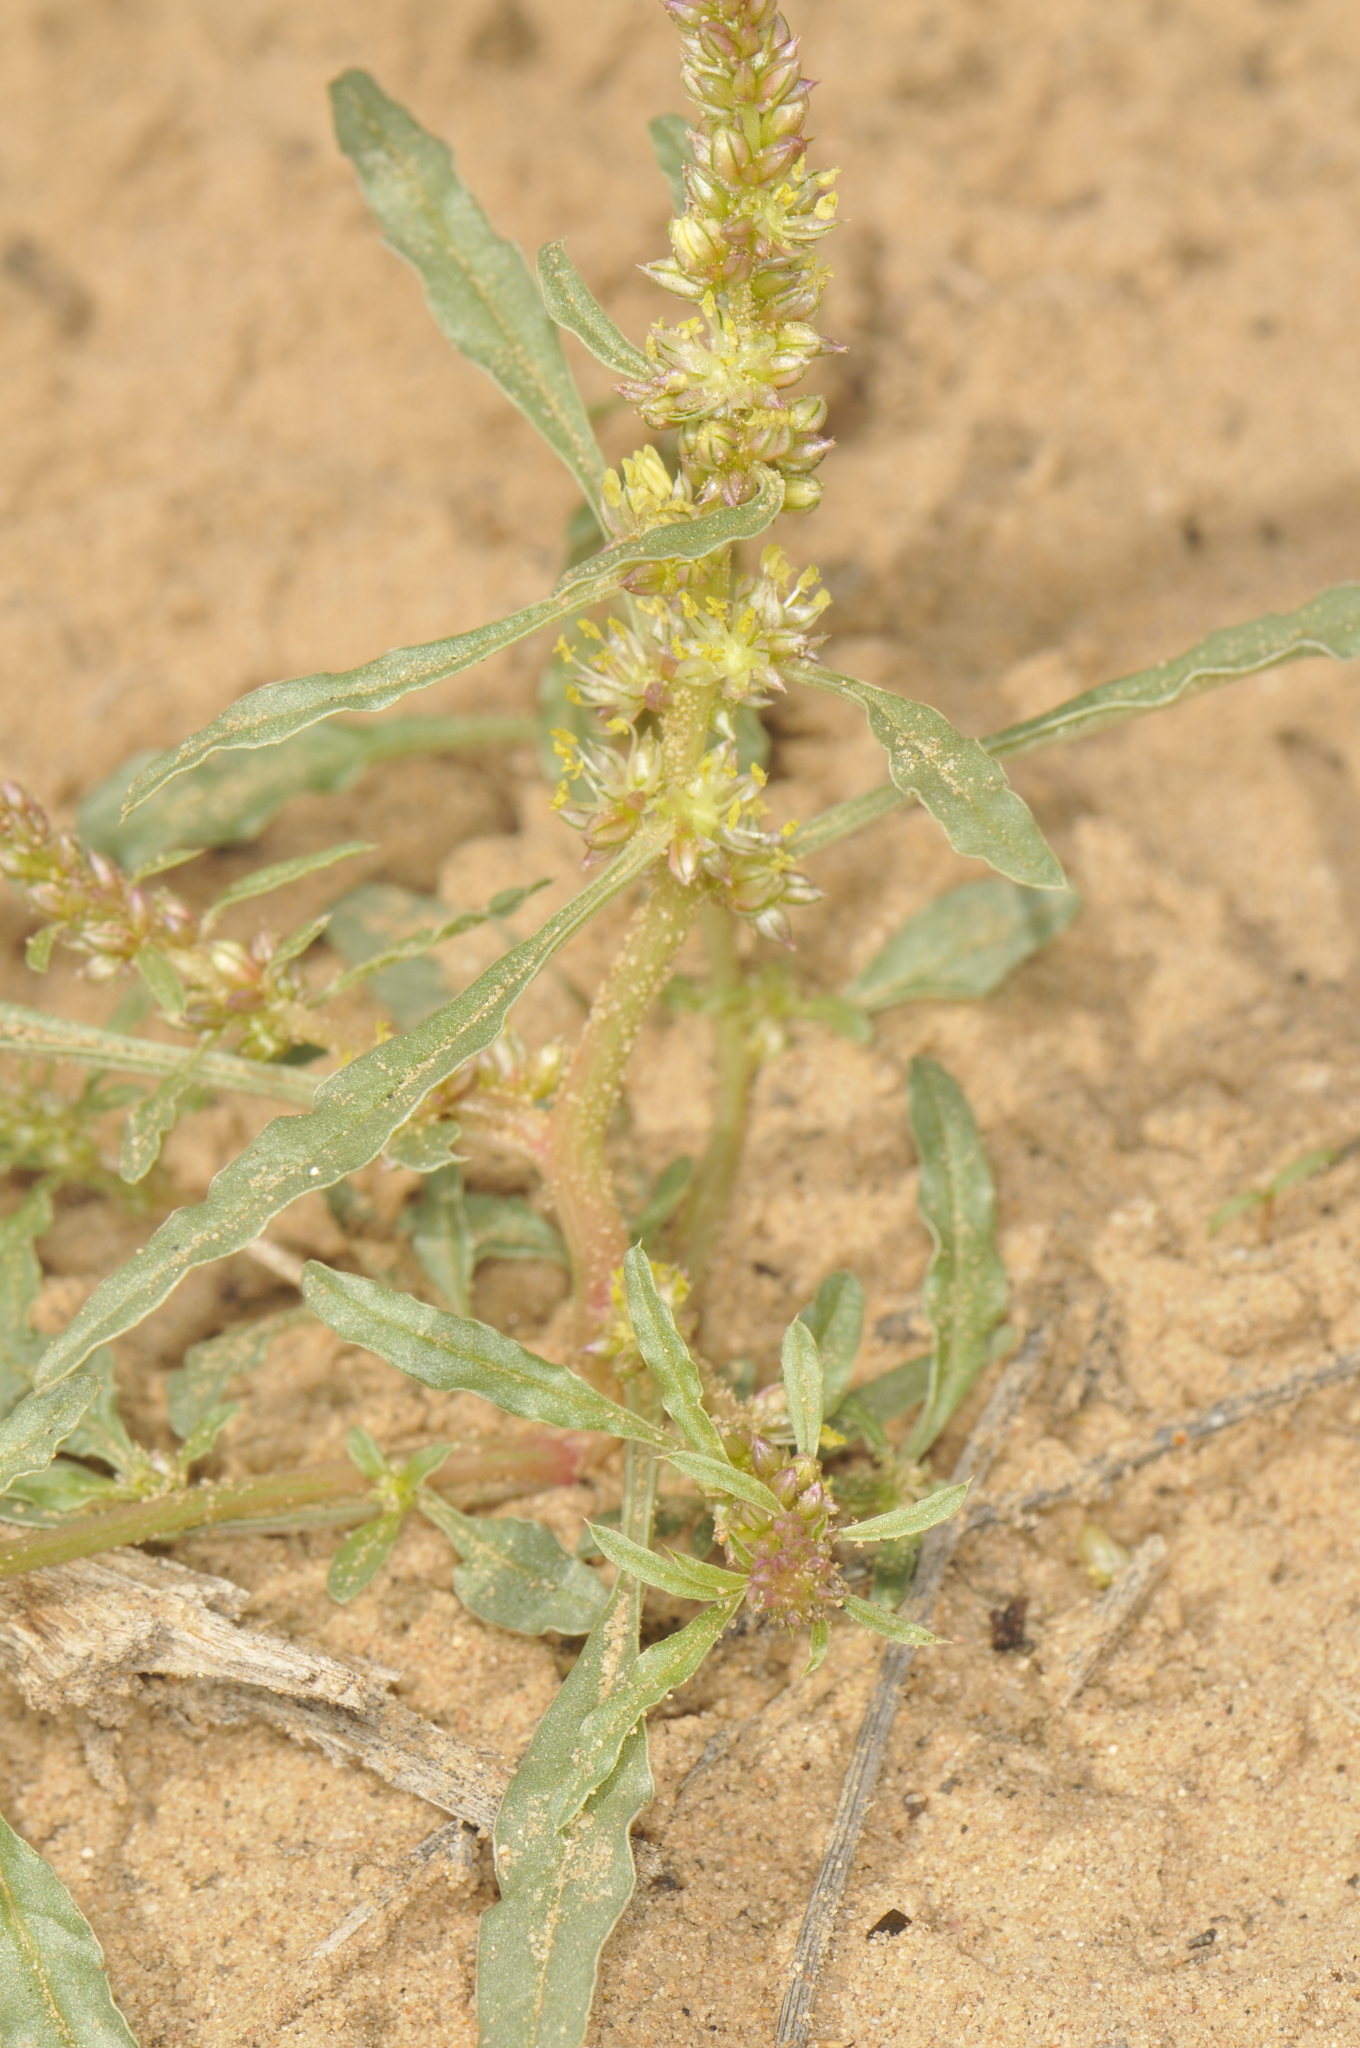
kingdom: Plantae
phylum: Tracheophyta
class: Magnoliopsida
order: Caryophyllales
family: Amaranthaceae
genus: Amaranthus
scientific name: Amaranthus acanthochiton
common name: Greenstripe
